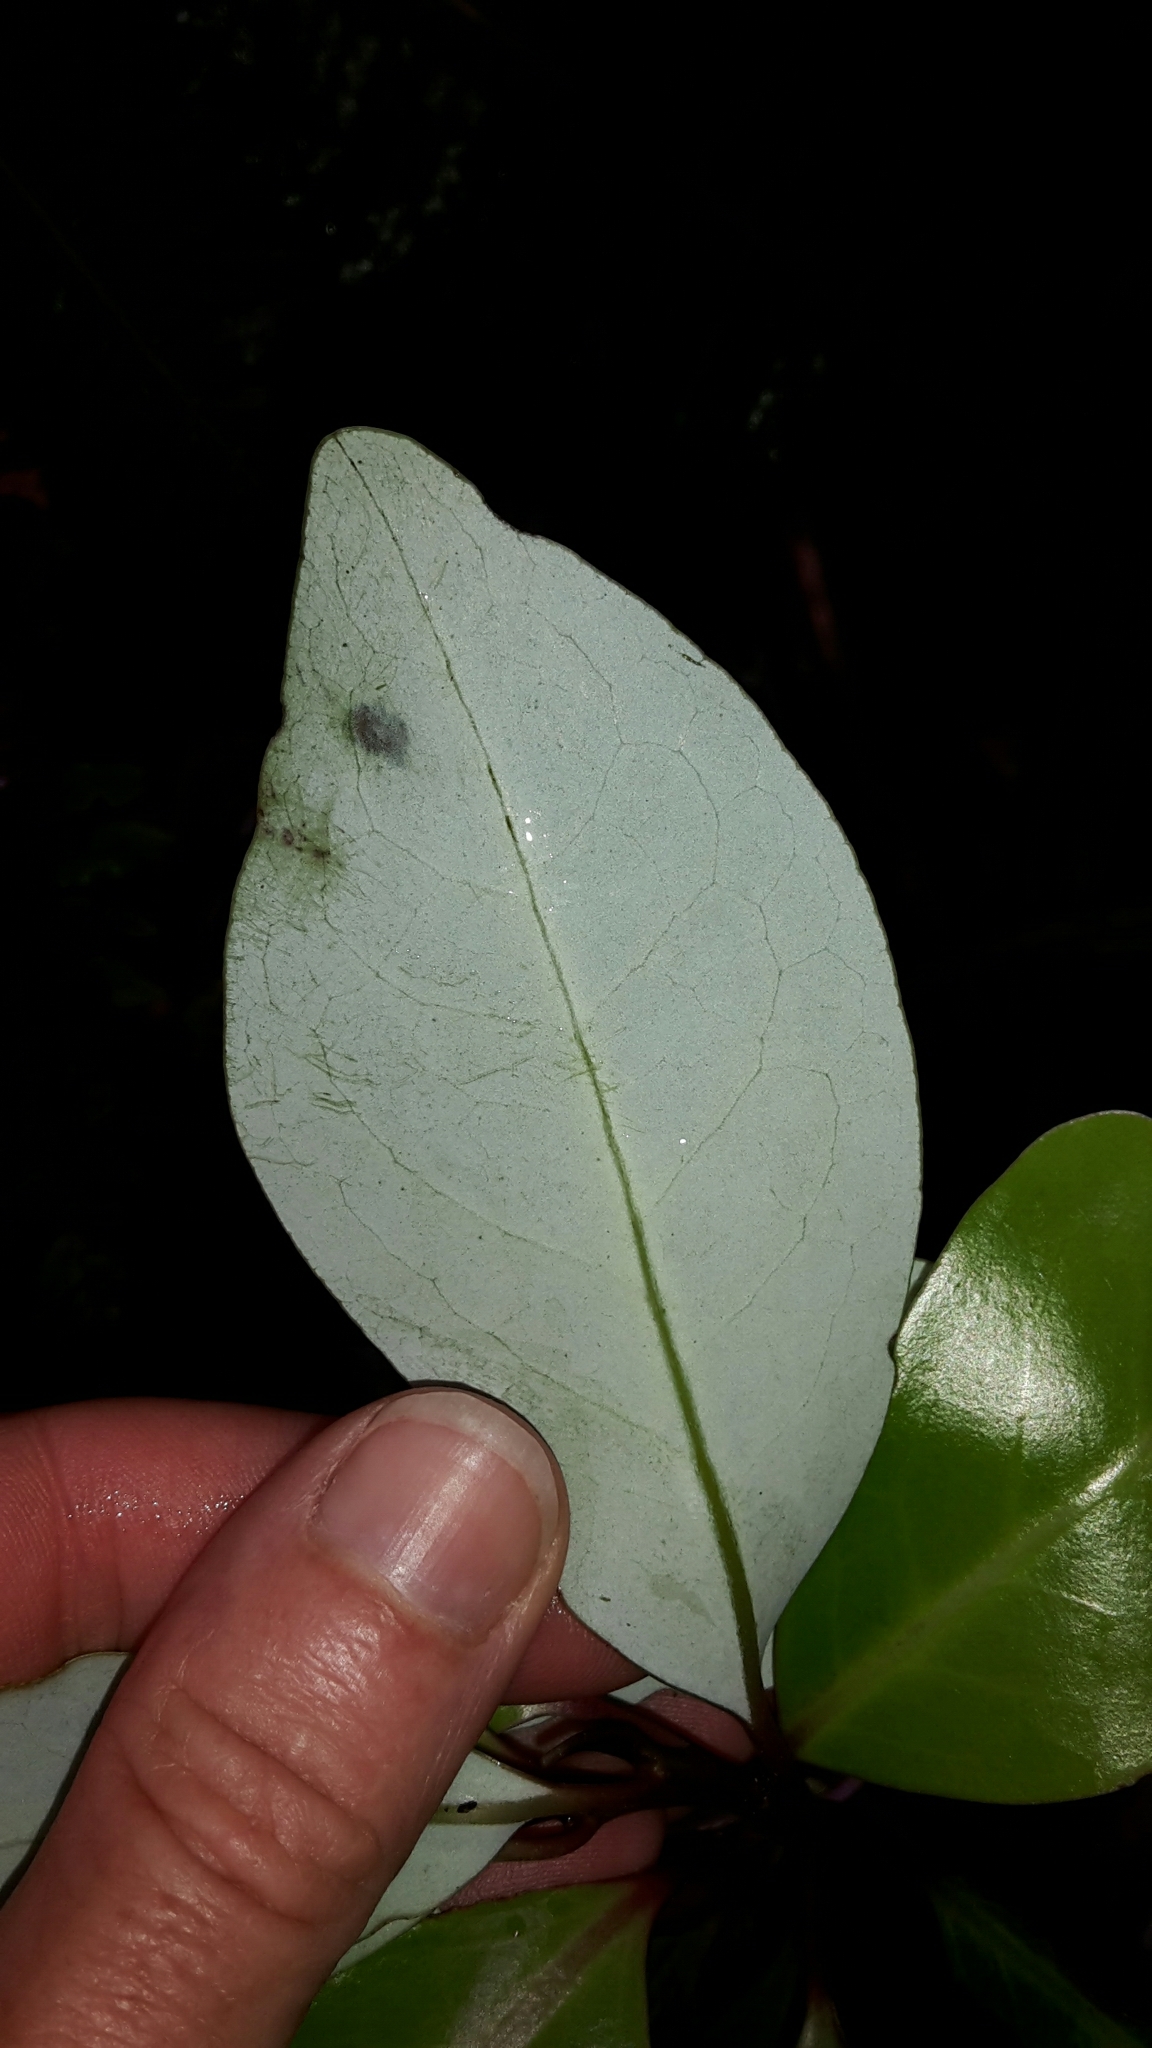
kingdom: Plantae
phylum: Tracheophyta
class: Magnoliopsida
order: Canellales
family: Winteraceae
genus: Pseudowintera
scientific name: Pseudowintera axillaris
